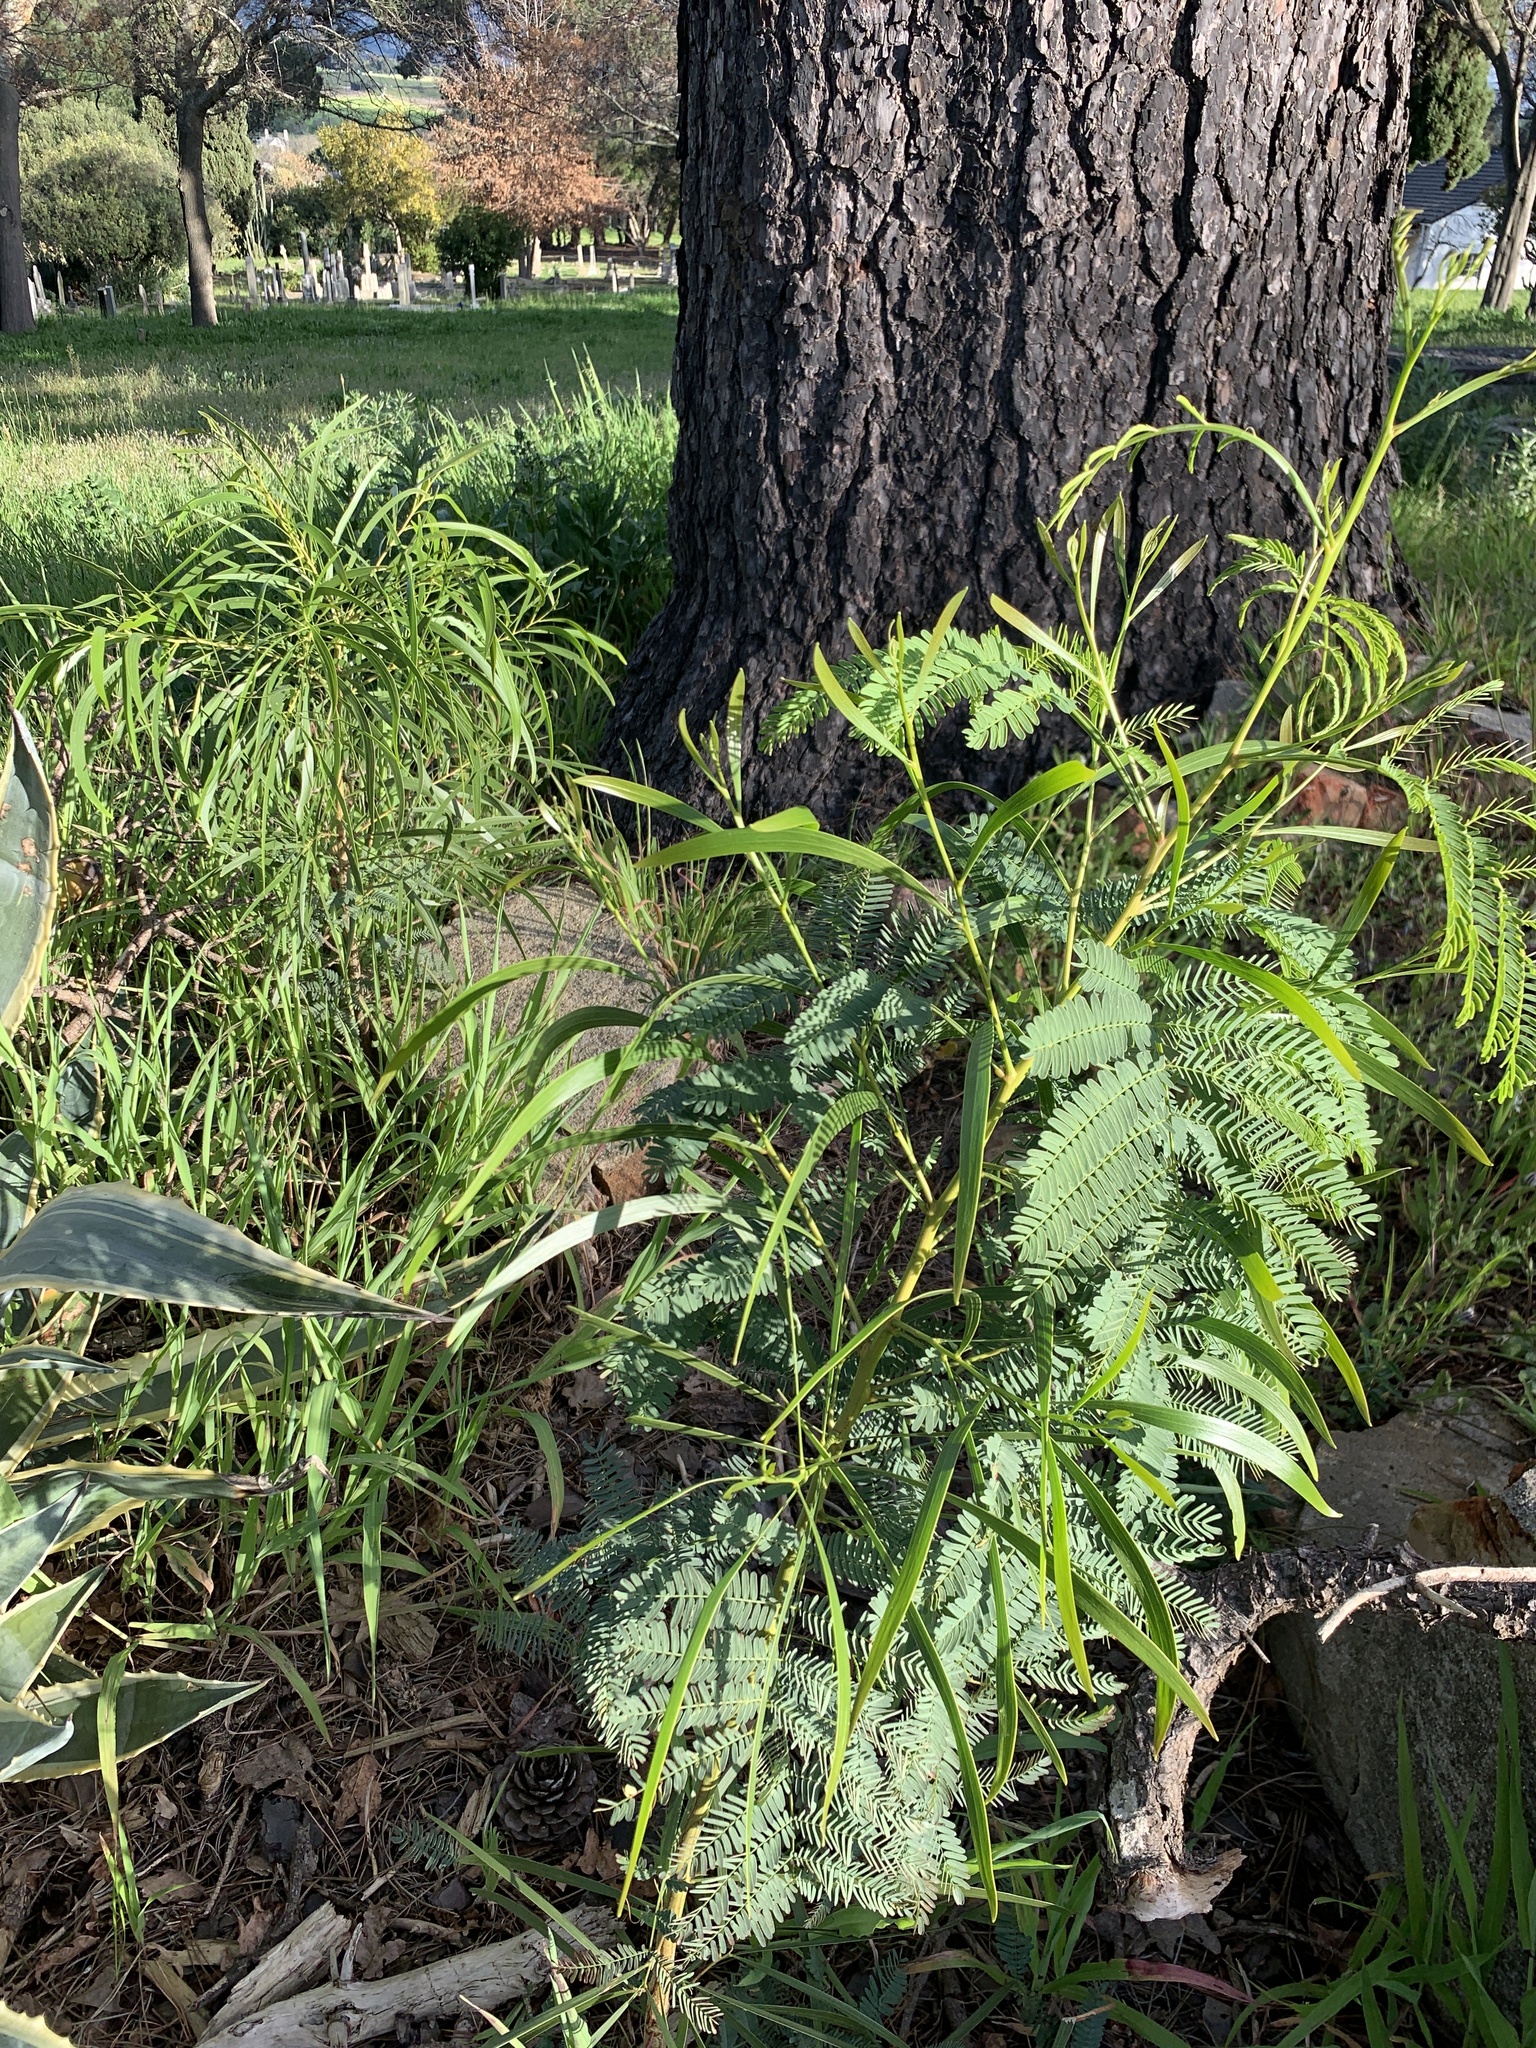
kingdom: Plantae
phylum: Tracheophyta
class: Magnoliopsida
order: Fabales
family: Fabaceae
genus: Acacia
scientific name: Acacia implexa
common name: Black wattle
